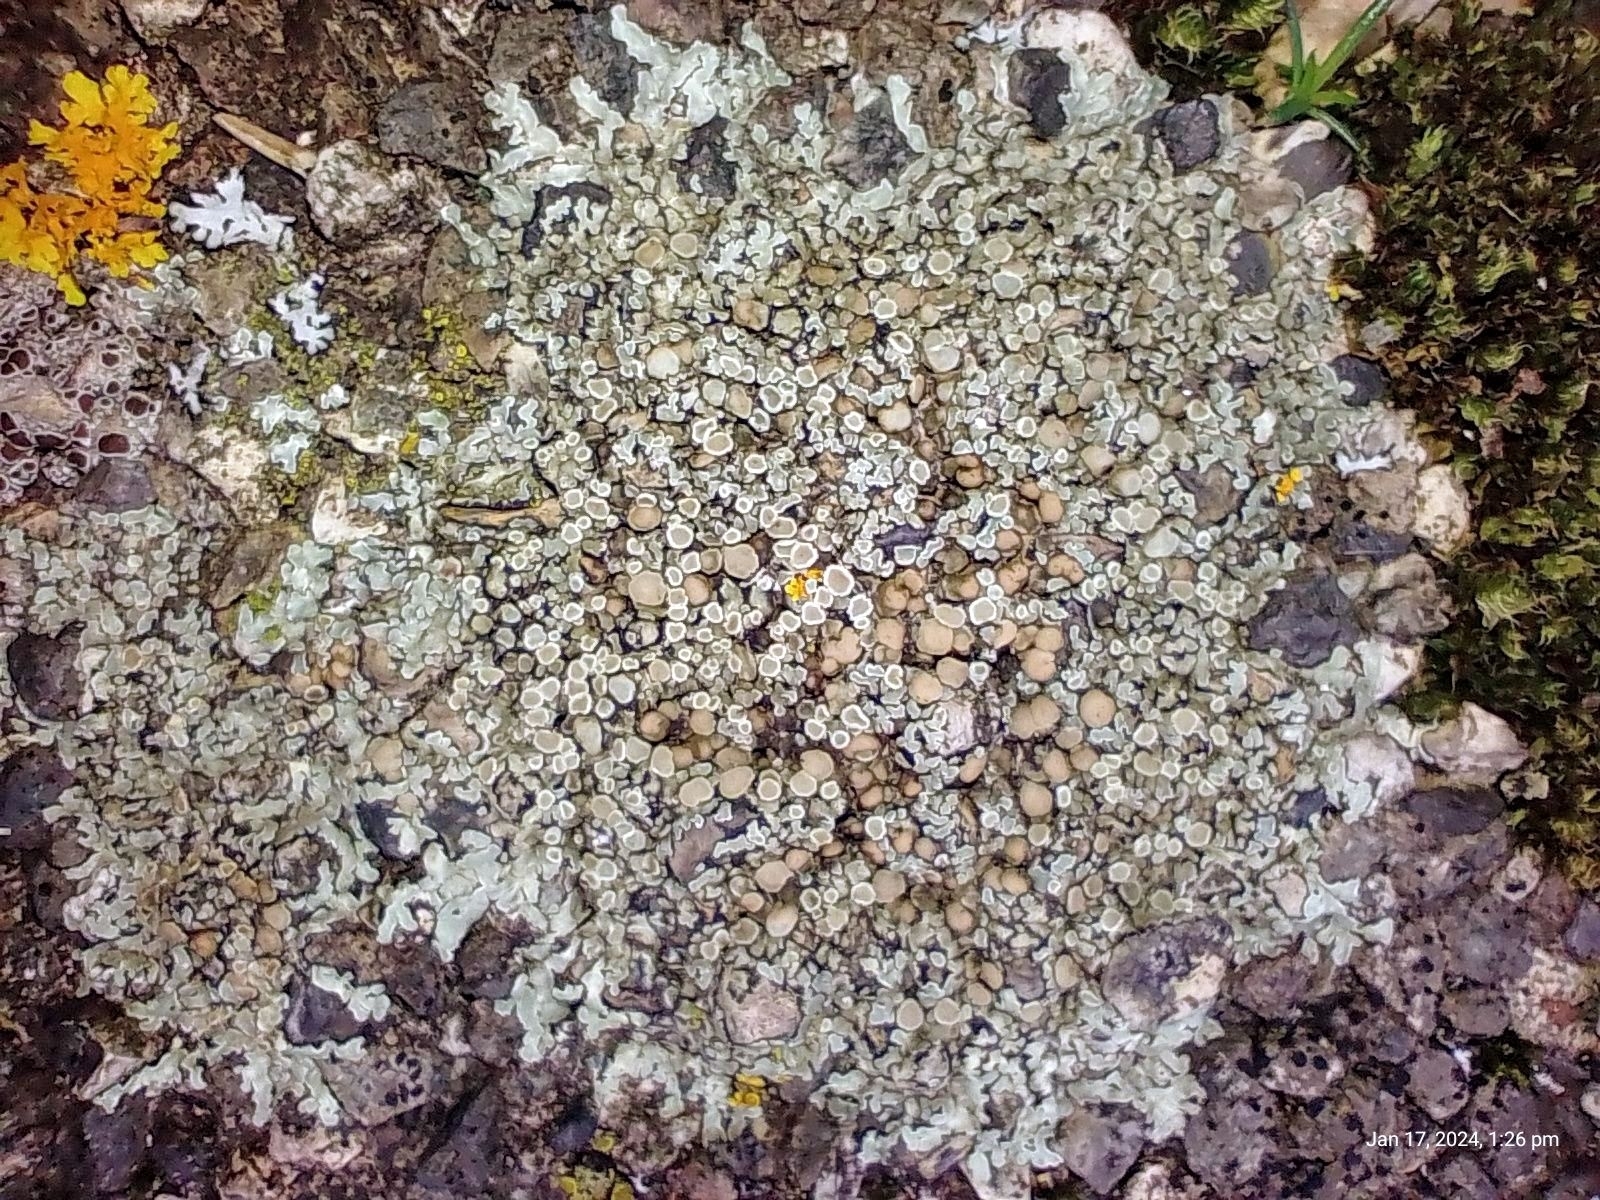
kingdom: Fungi
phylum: Ascomycota
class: Lecanoromycetes
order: Lecanorales
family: Lecanoraceae
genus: Protoparmeliopsis
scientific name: Protoparmeliopsis muralis
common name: Stonewall rim lichen
